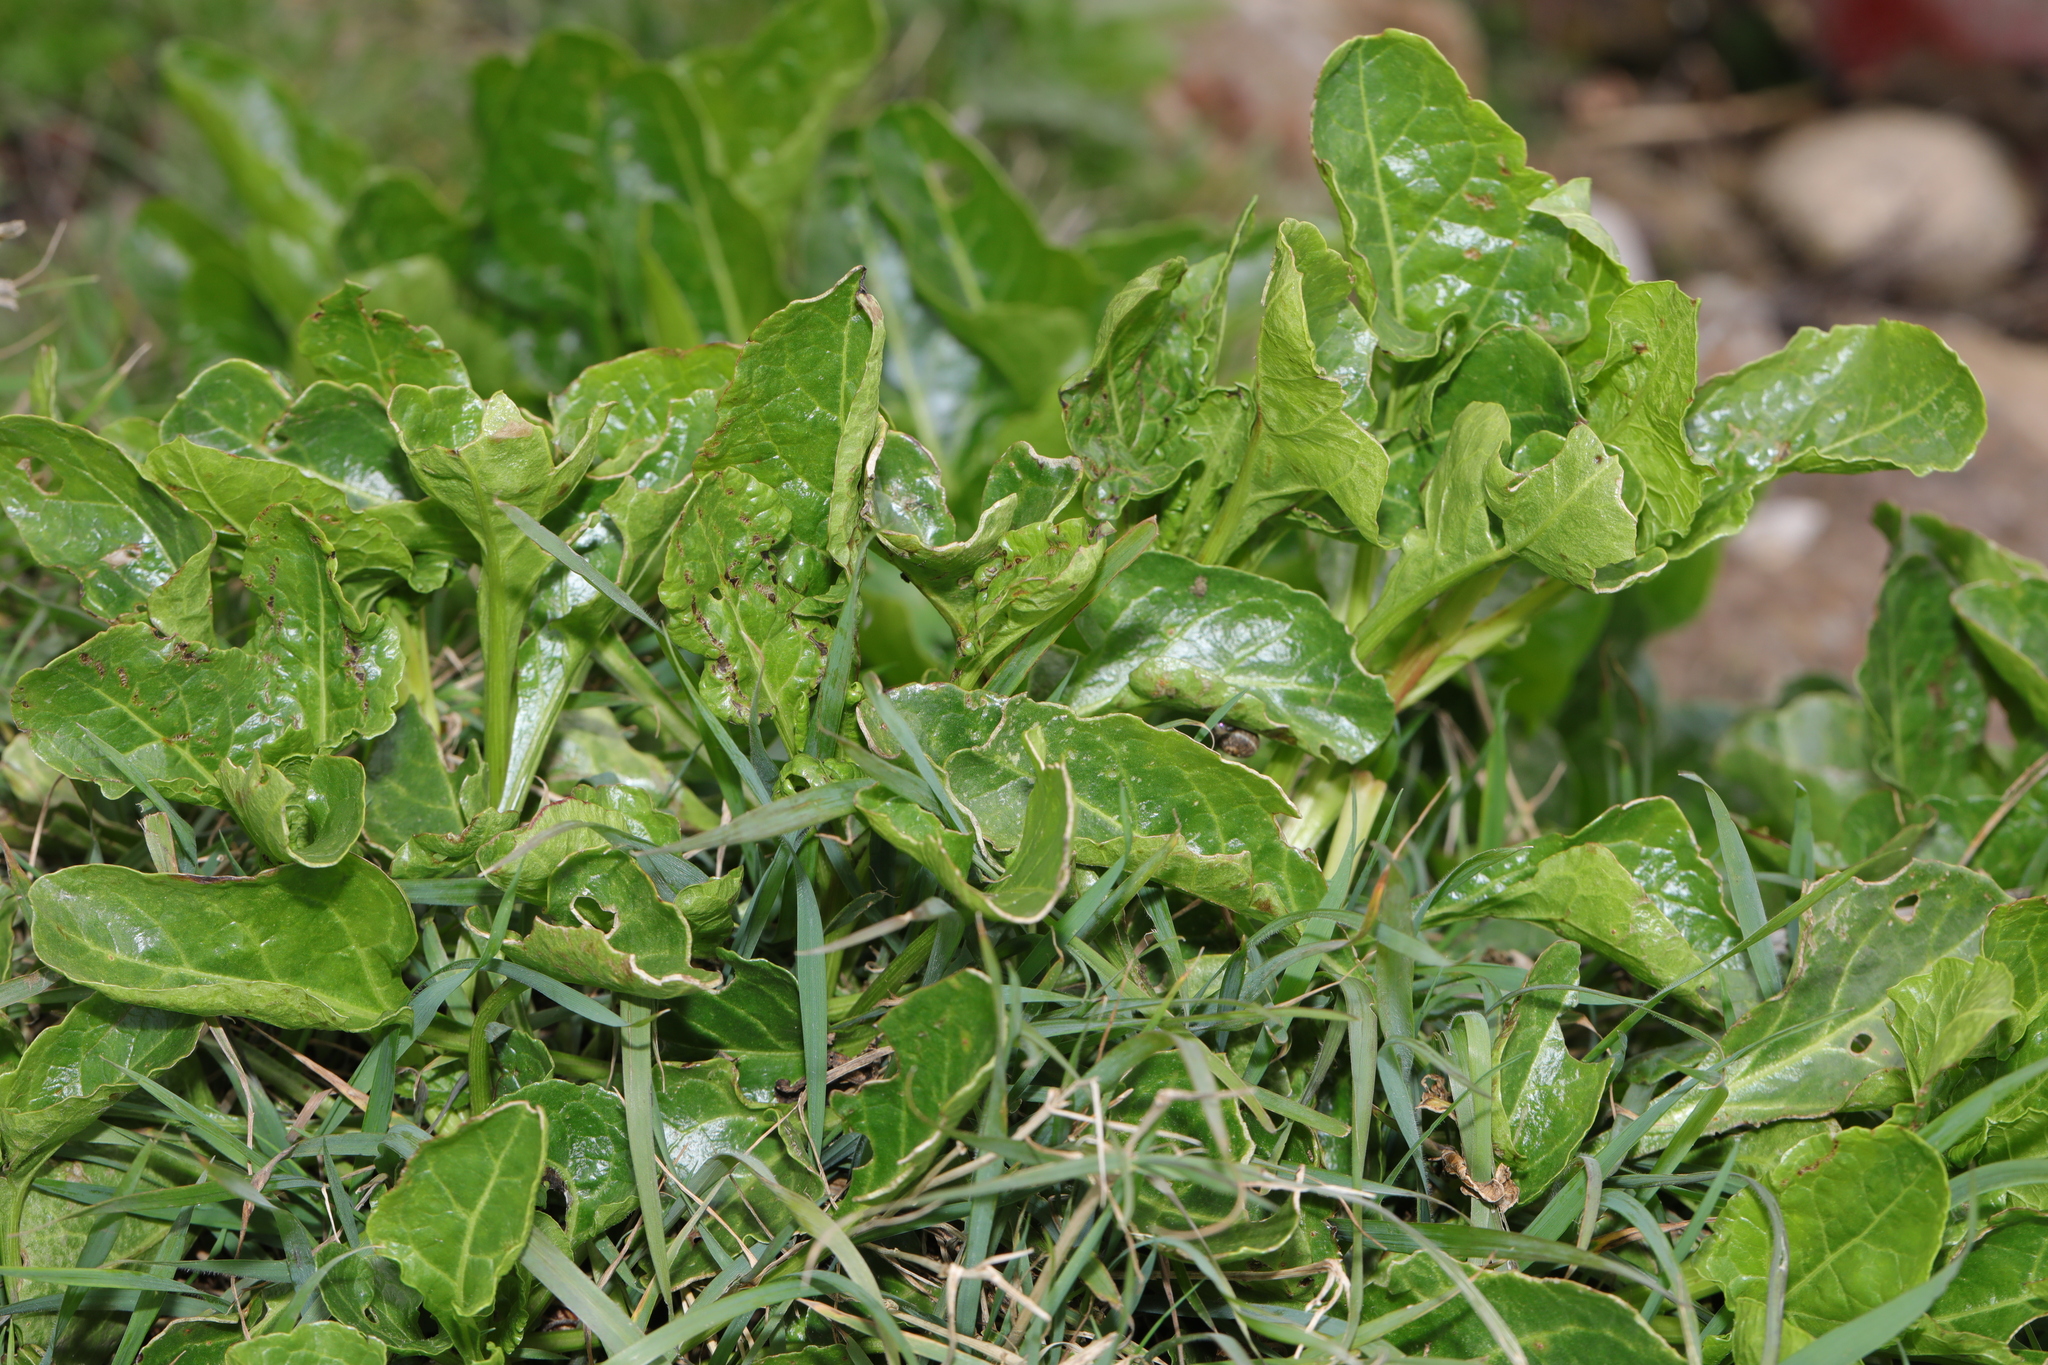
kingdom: Plantae
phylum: Tracheophyta
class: Magnoliopsida
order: Caryophyllales
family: Amaranthaceae
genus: Beta
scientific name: Beta vulgaris
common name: Beet
